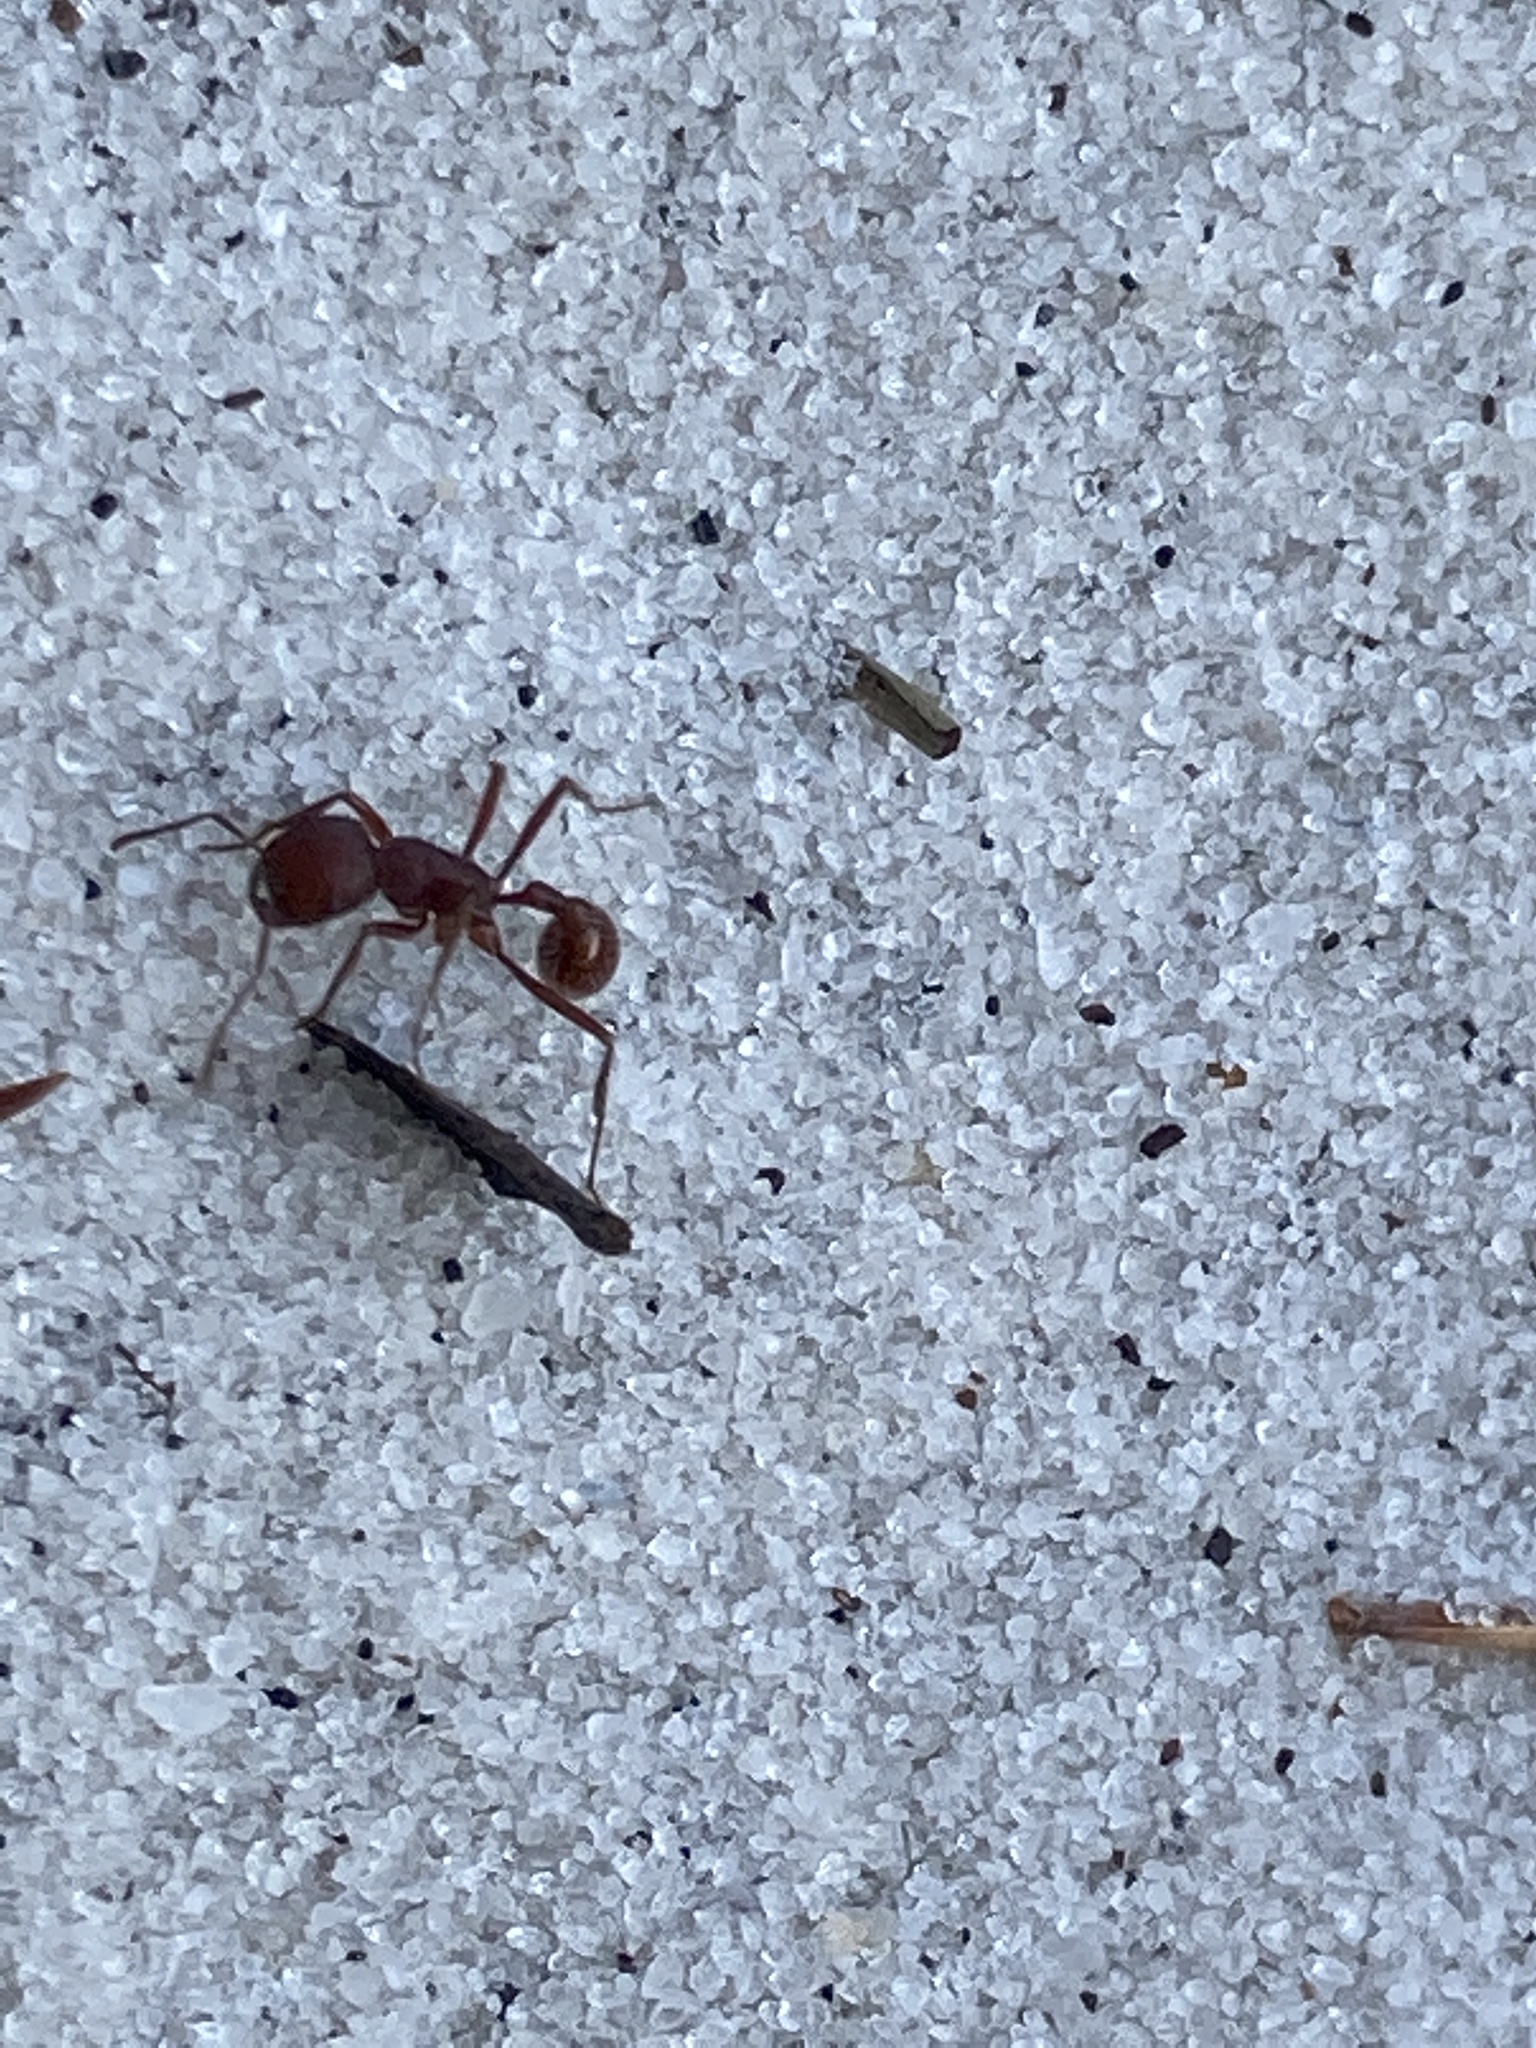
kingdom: Animalia
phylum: Arthropoda
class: Insecta
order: Hymenoptera
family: Formicidae
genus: Pogonomyrmex
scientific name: Pogonomyrmex badius
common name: Florida harvester ant
